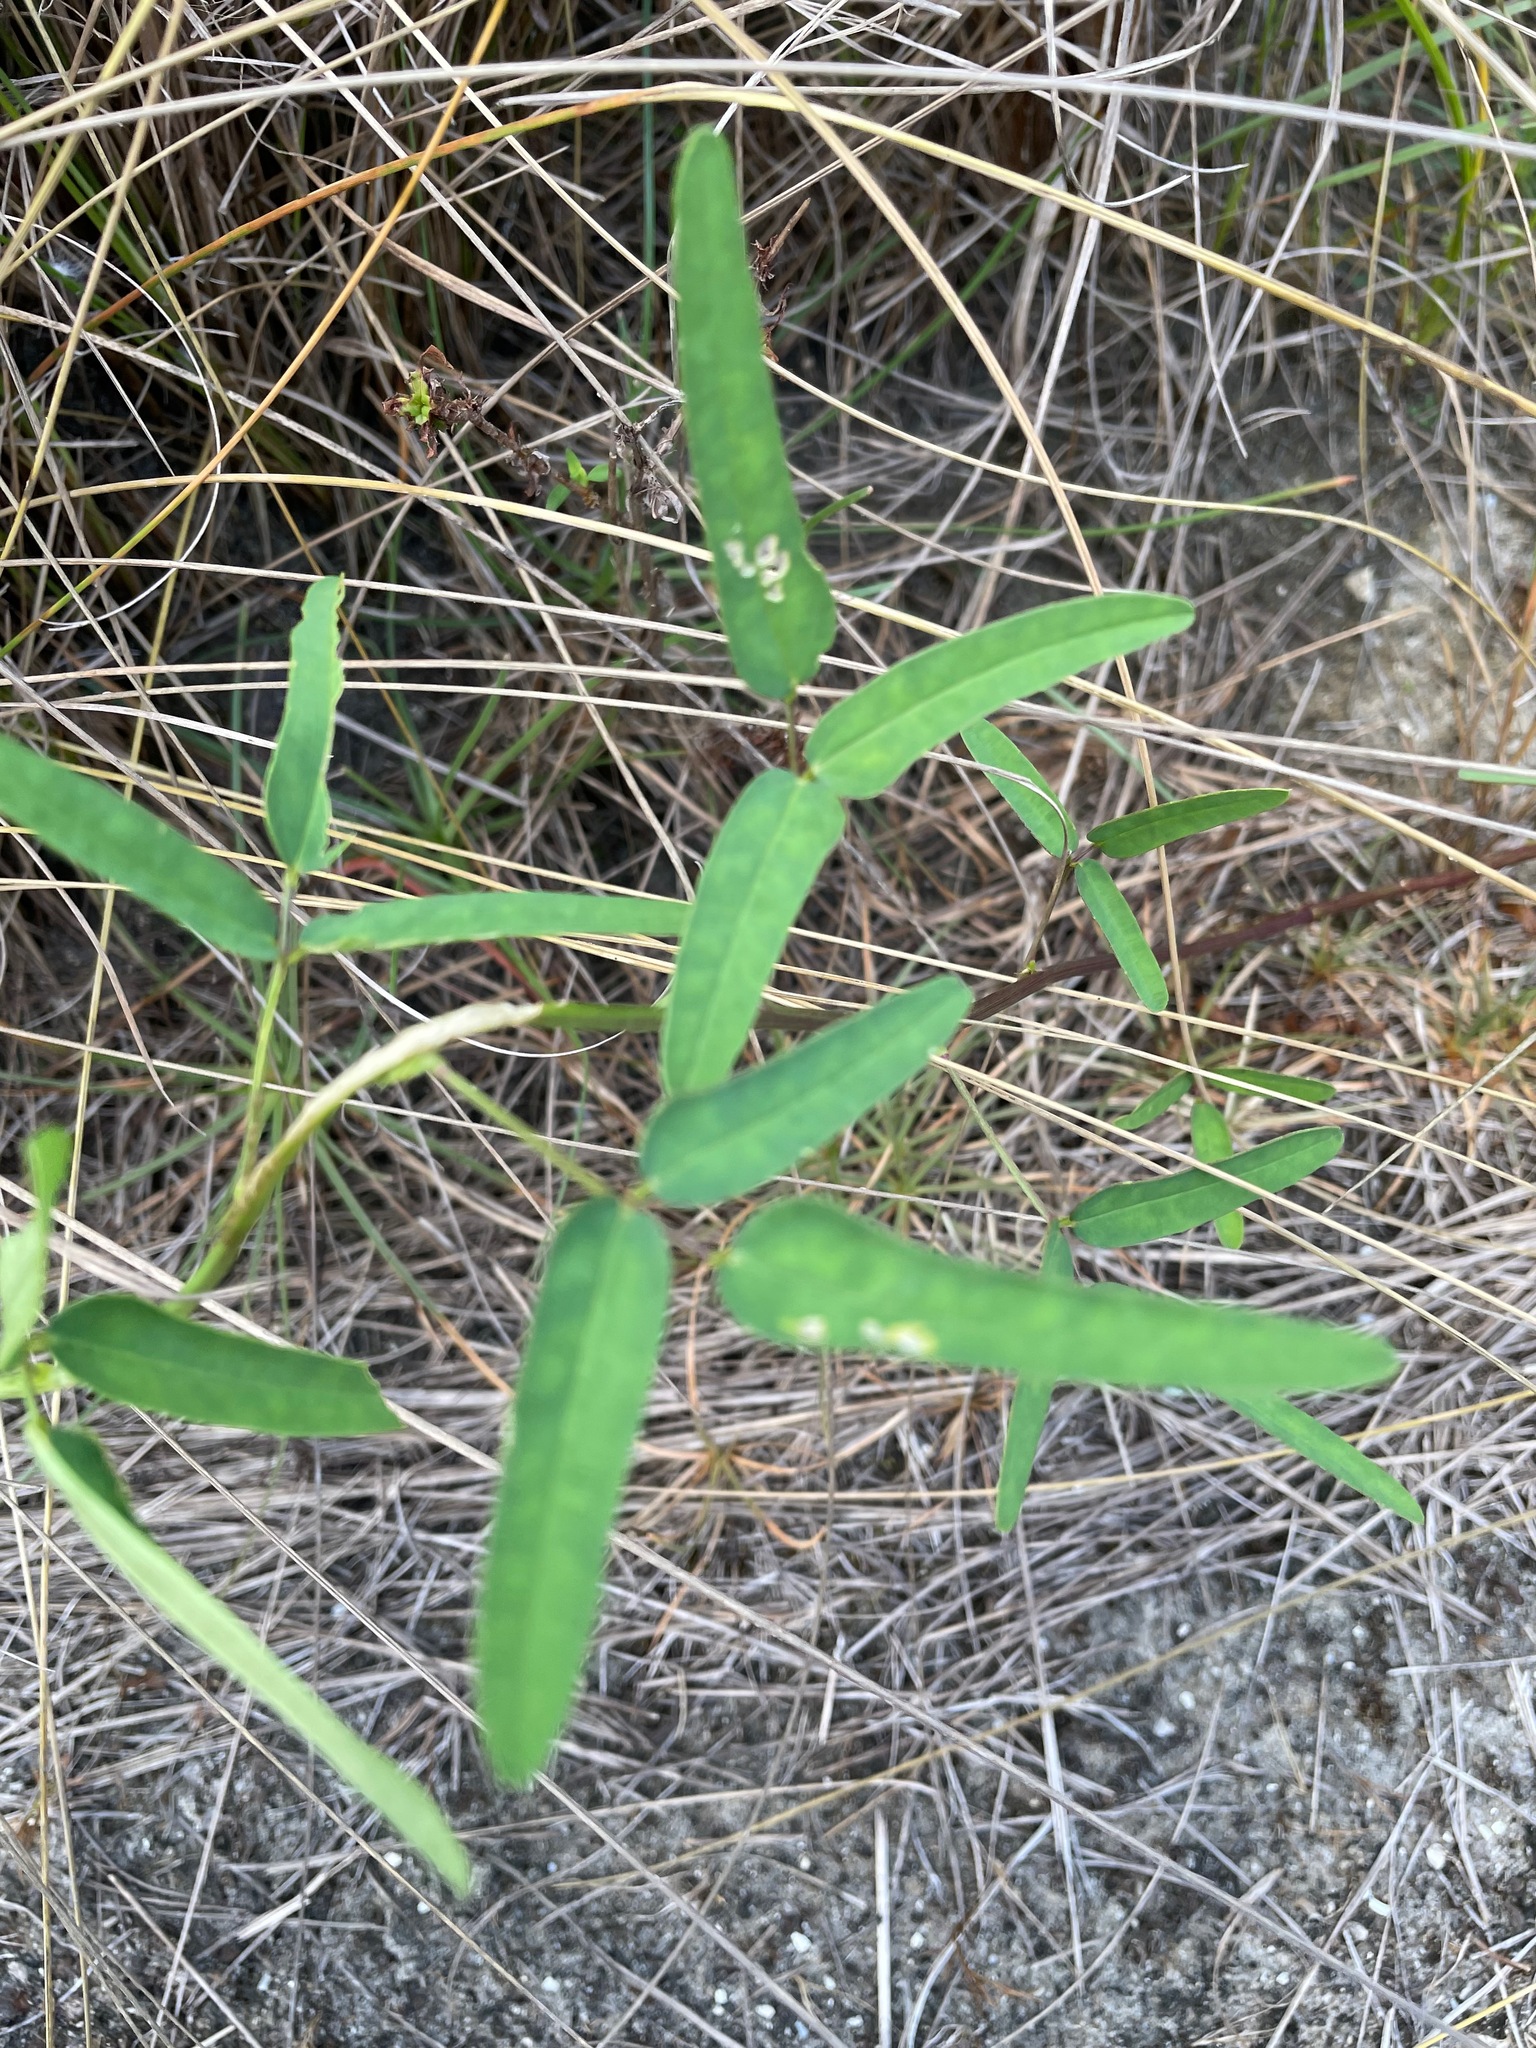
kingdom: Plantae
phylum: Tracheophyta
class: Magnoliopsida
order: Fabales
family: Fabaceae
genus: Macroptilium
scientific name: Macroptilium lathyroides
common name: Wild bushbean
